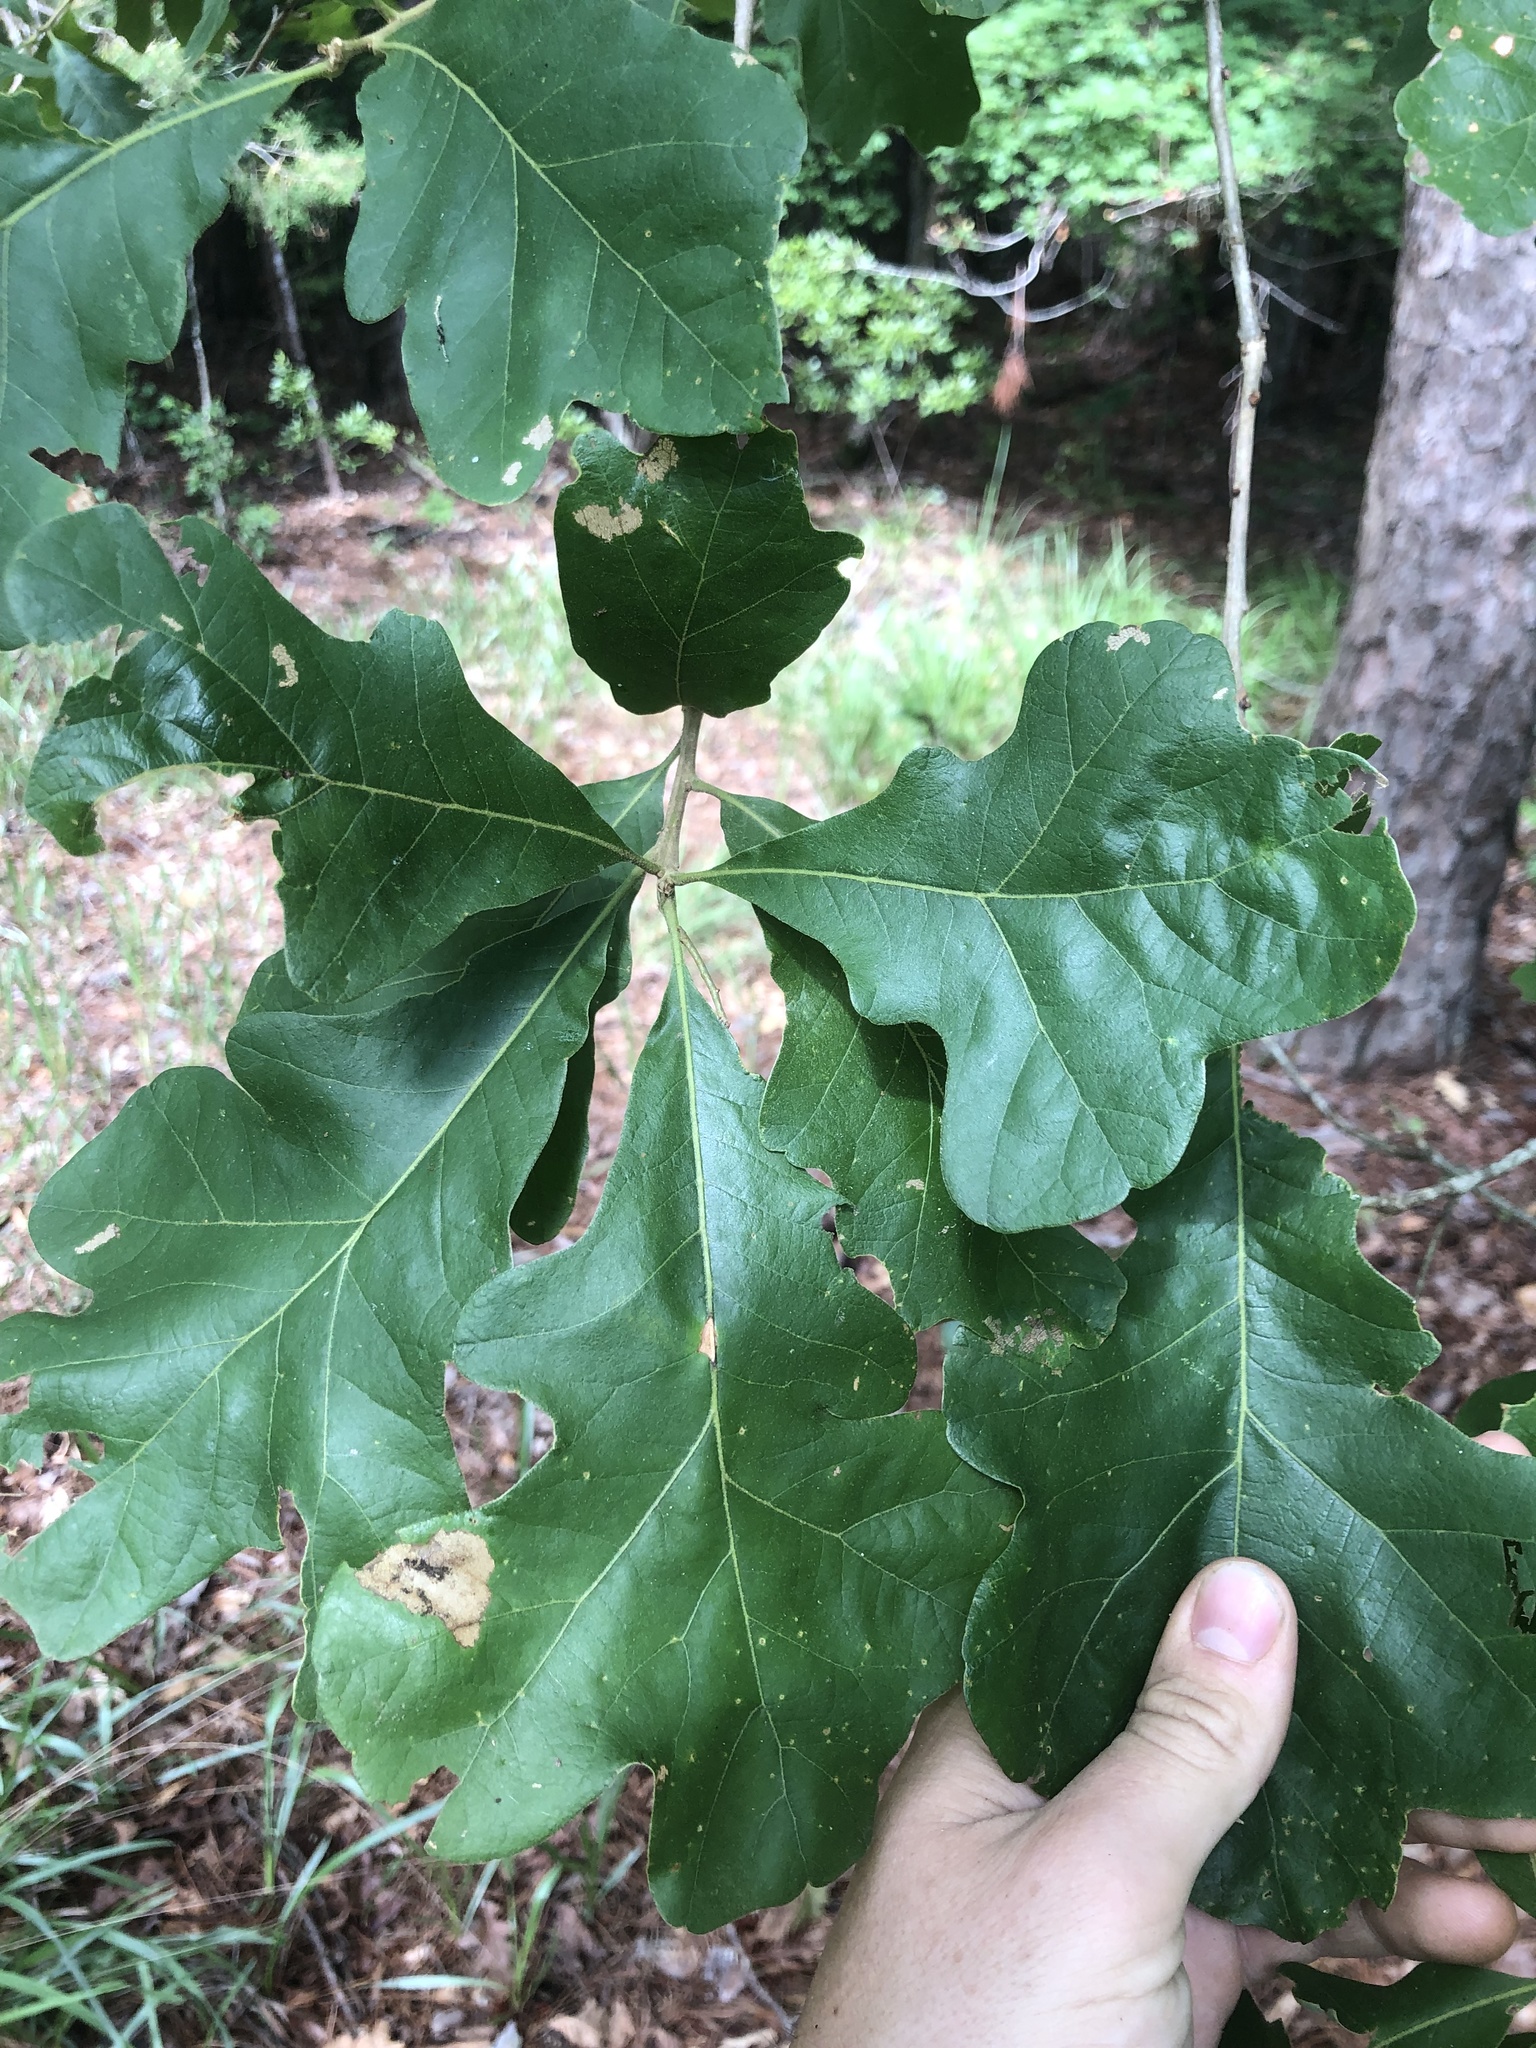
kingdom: Plantae
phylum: Tracheophyta
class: Magnoliopsida
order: Fagales
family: Fagaceae
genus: Quercus
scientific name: Quercus stellata
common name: Post oak
